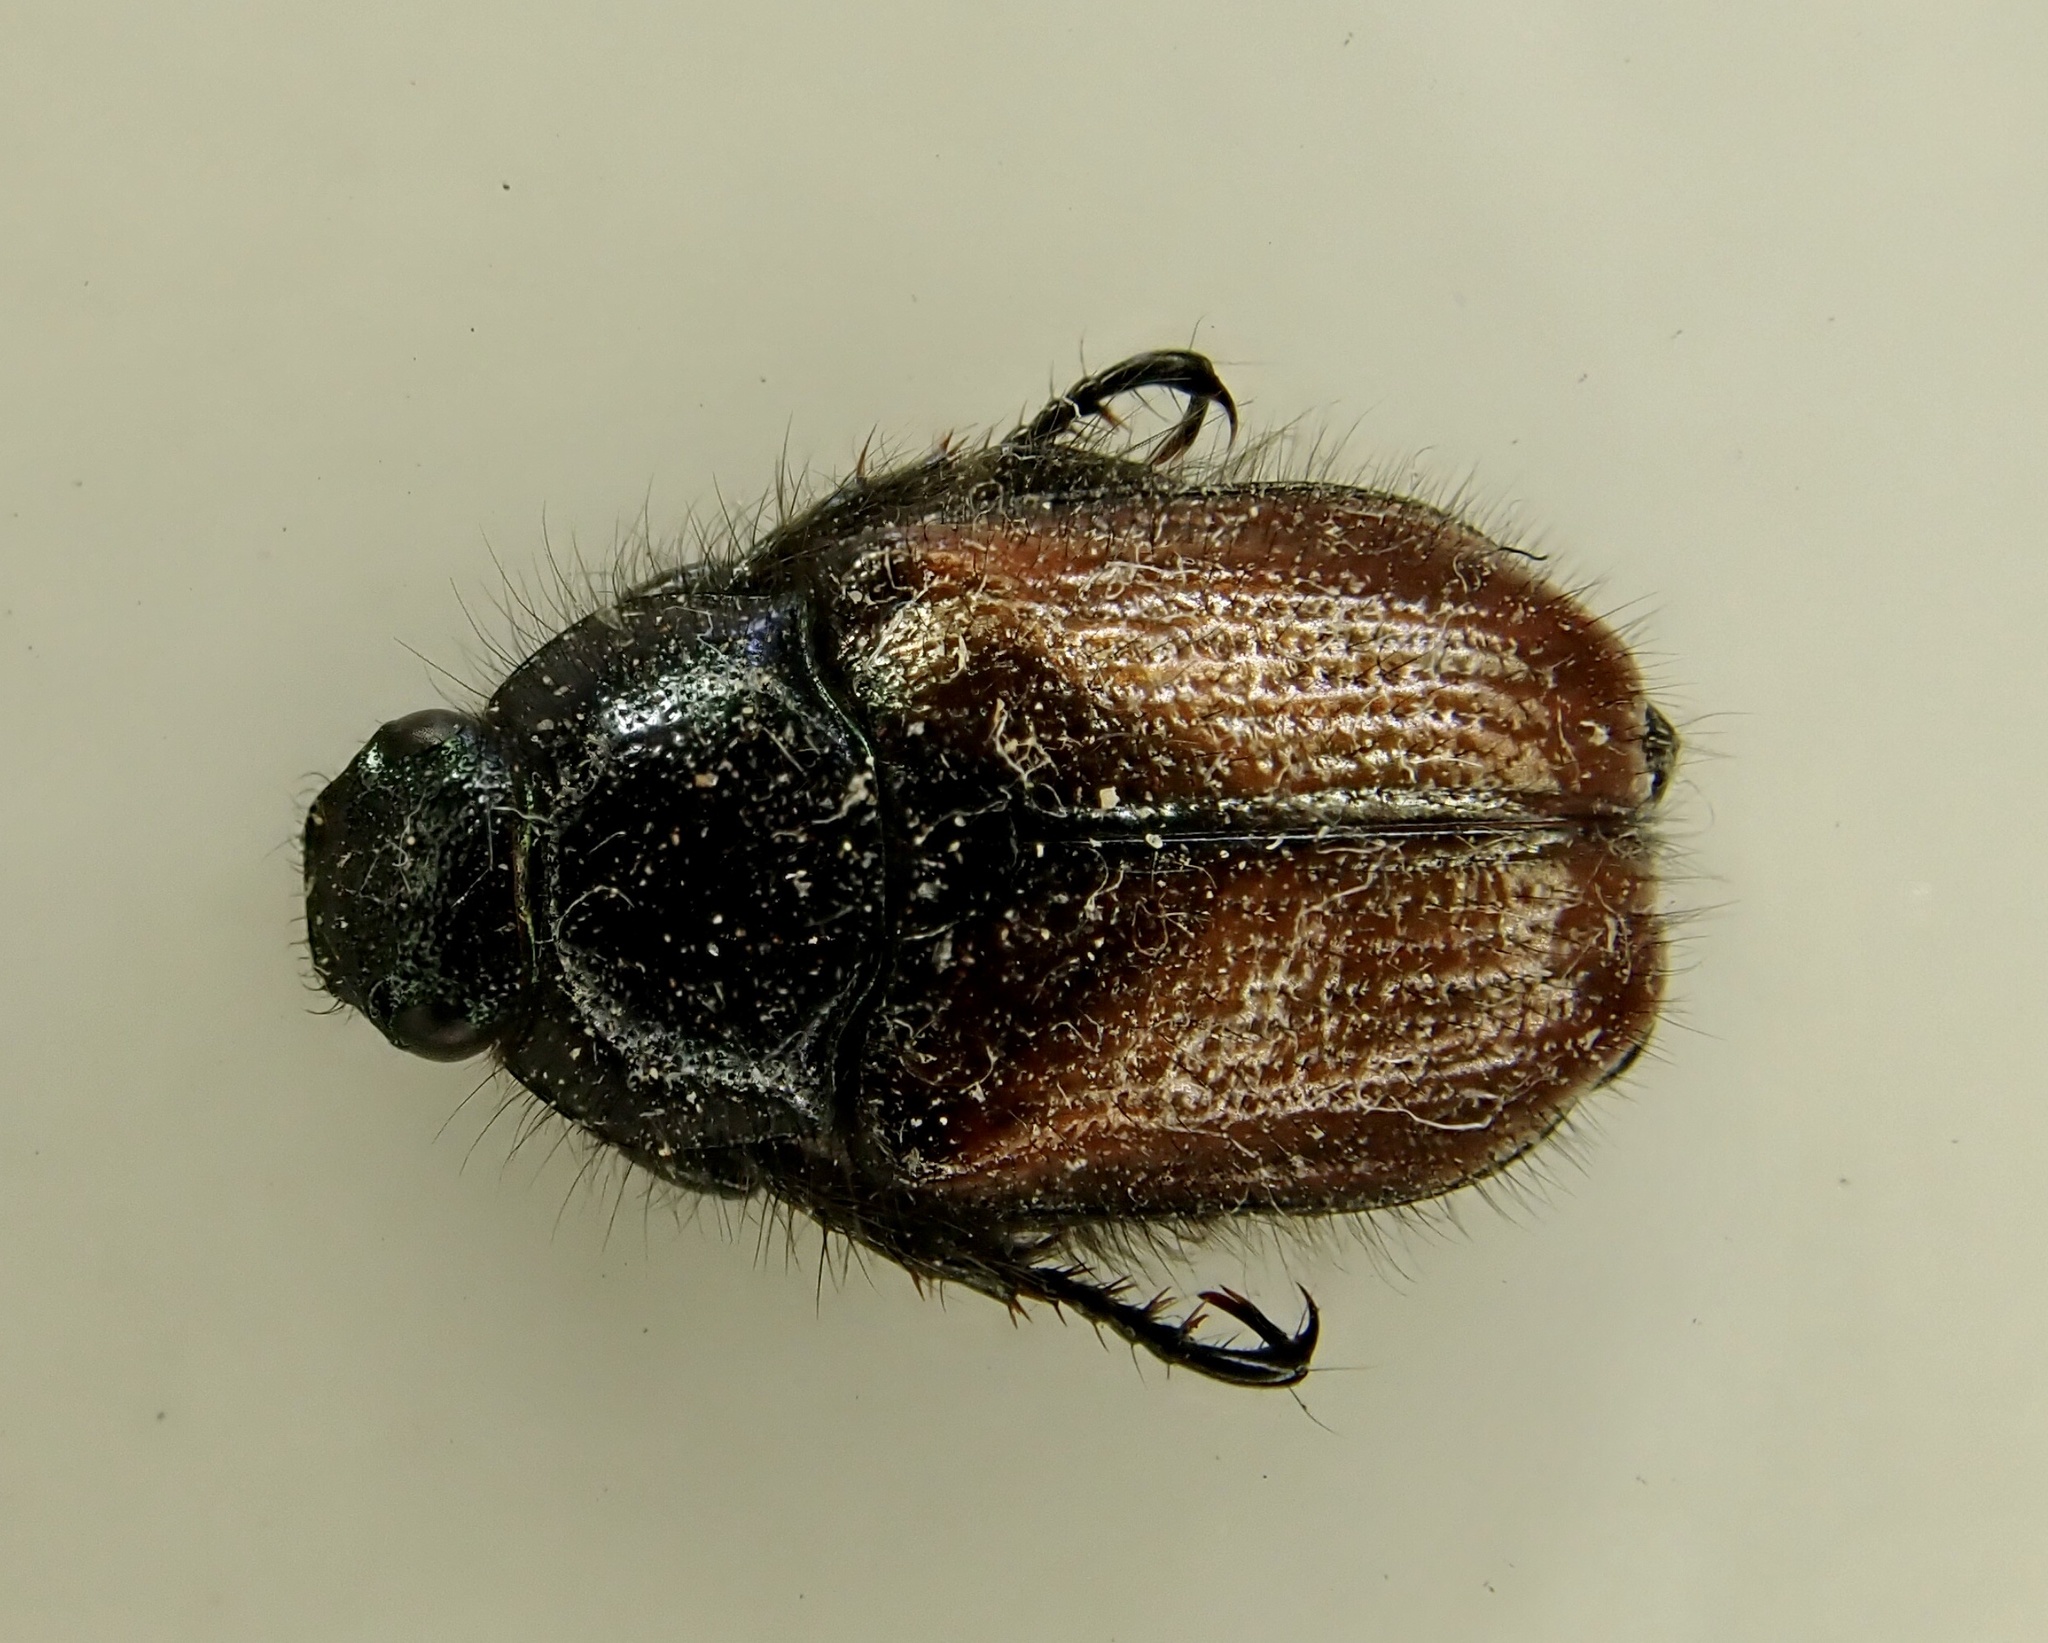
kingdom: Animalia
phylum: Arthropoda
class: Insecta
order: Coleoptera
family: Scarabaeidae
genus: Phyllopertha
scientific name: Phyllopertha horticola
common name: Garden chafer
